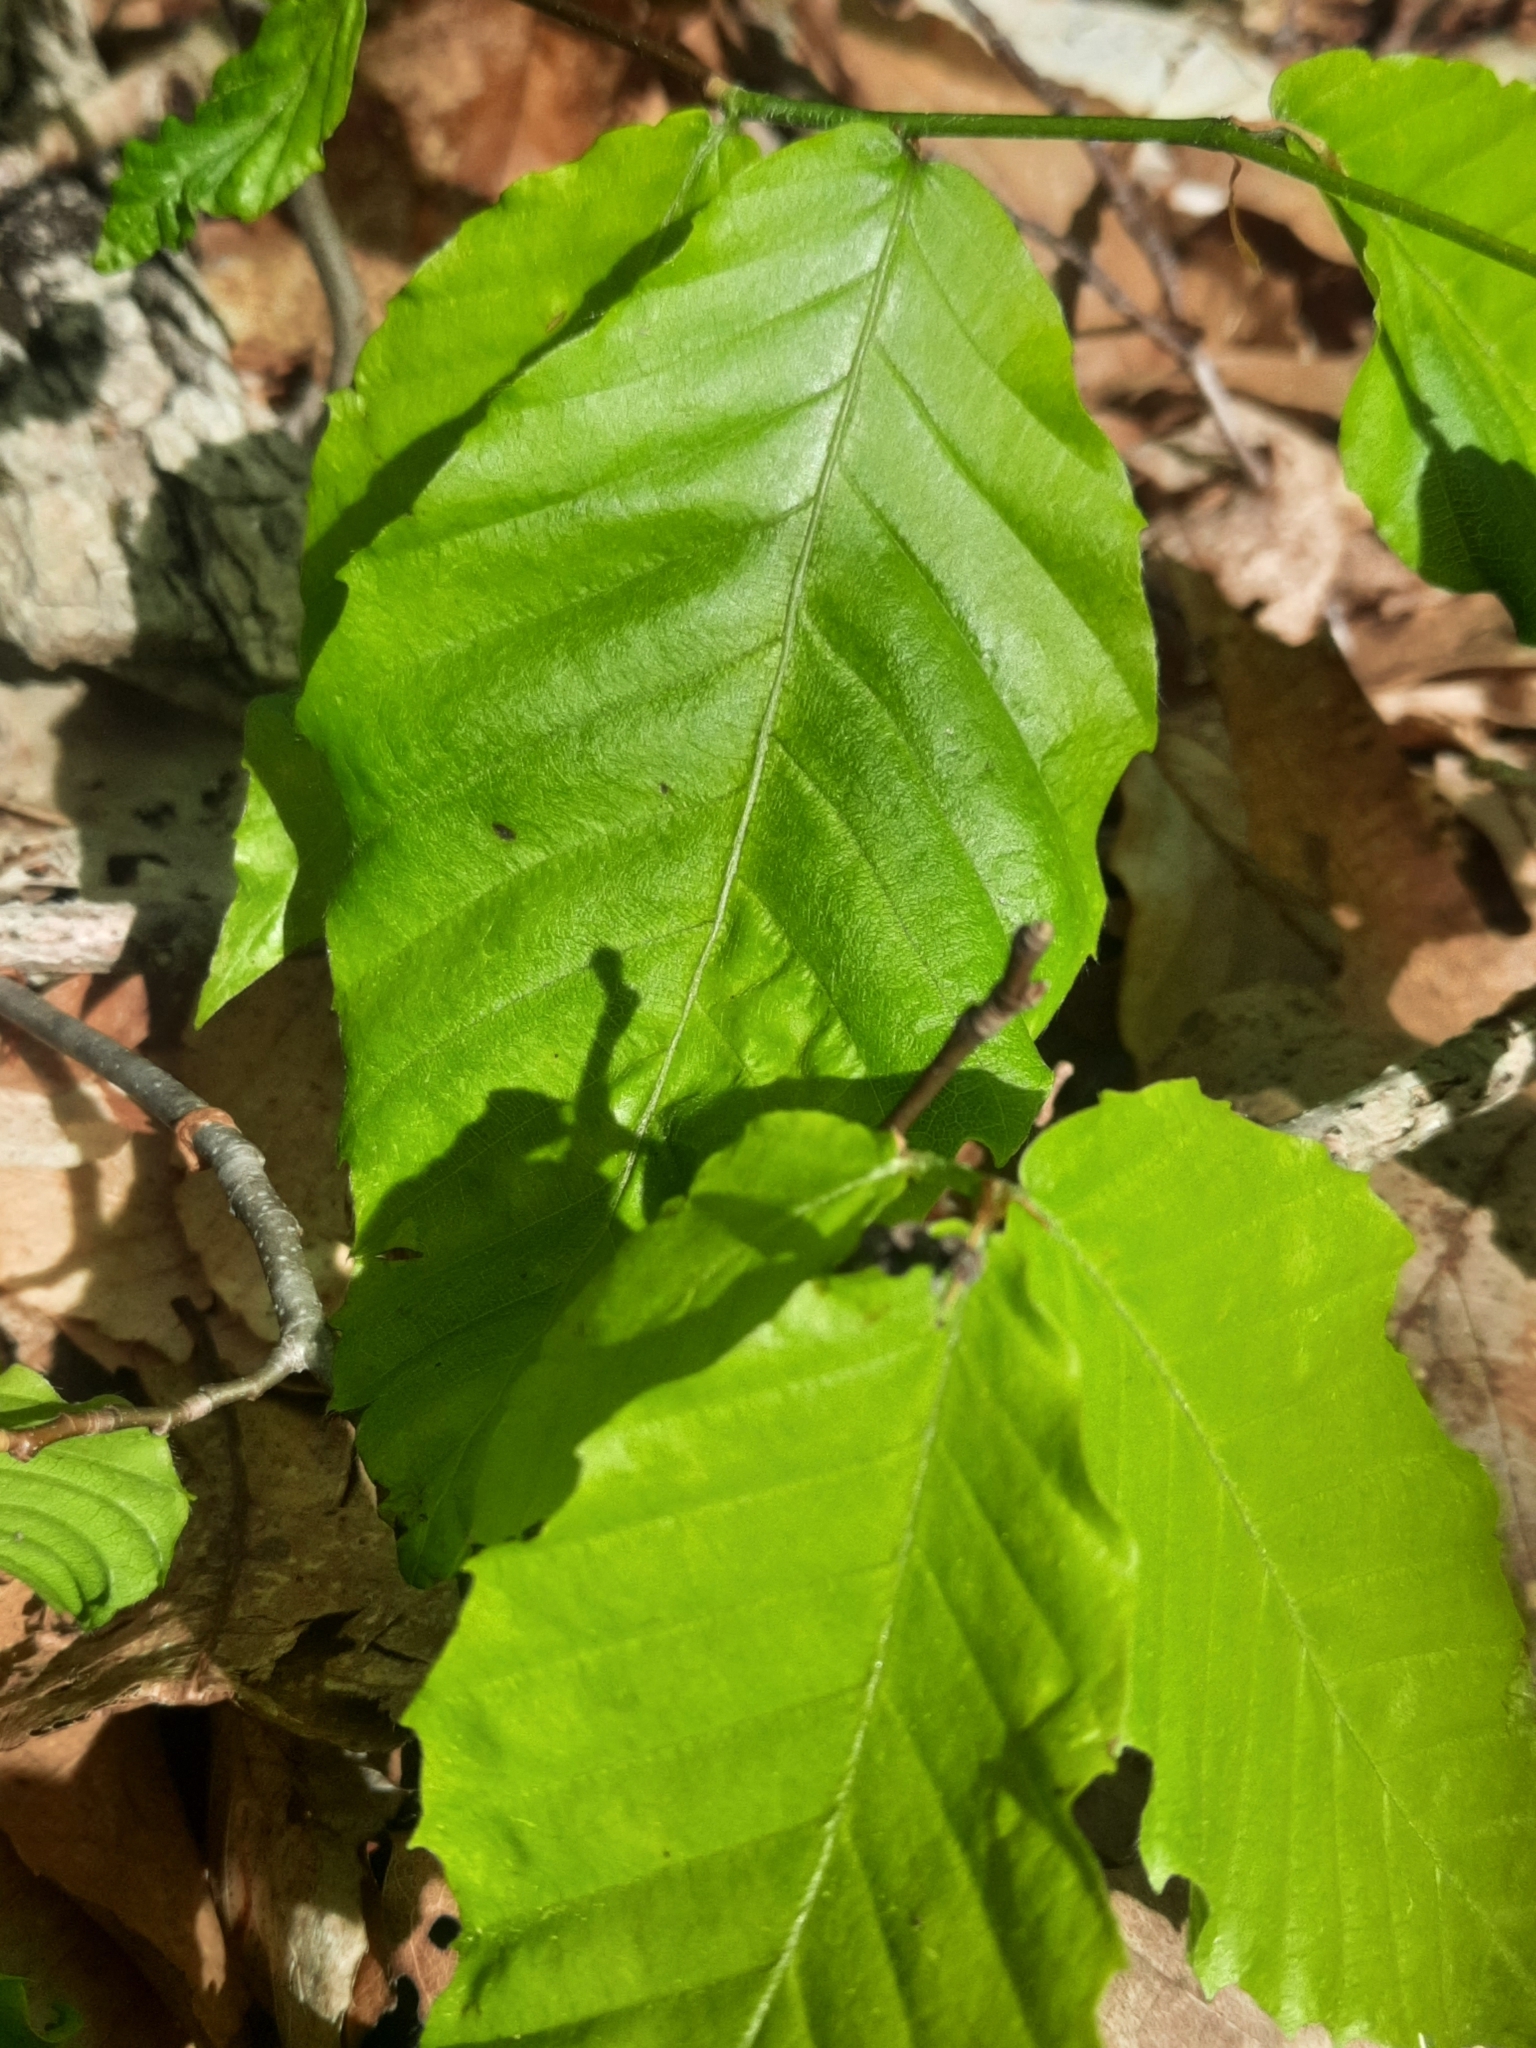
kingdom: Animalia
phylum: Nematoda
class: Chromadorea
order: Rhabditida
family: Anguinidae
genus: Litylenchus
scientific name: Litylenchus crenatae
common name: Beech leaf disease
